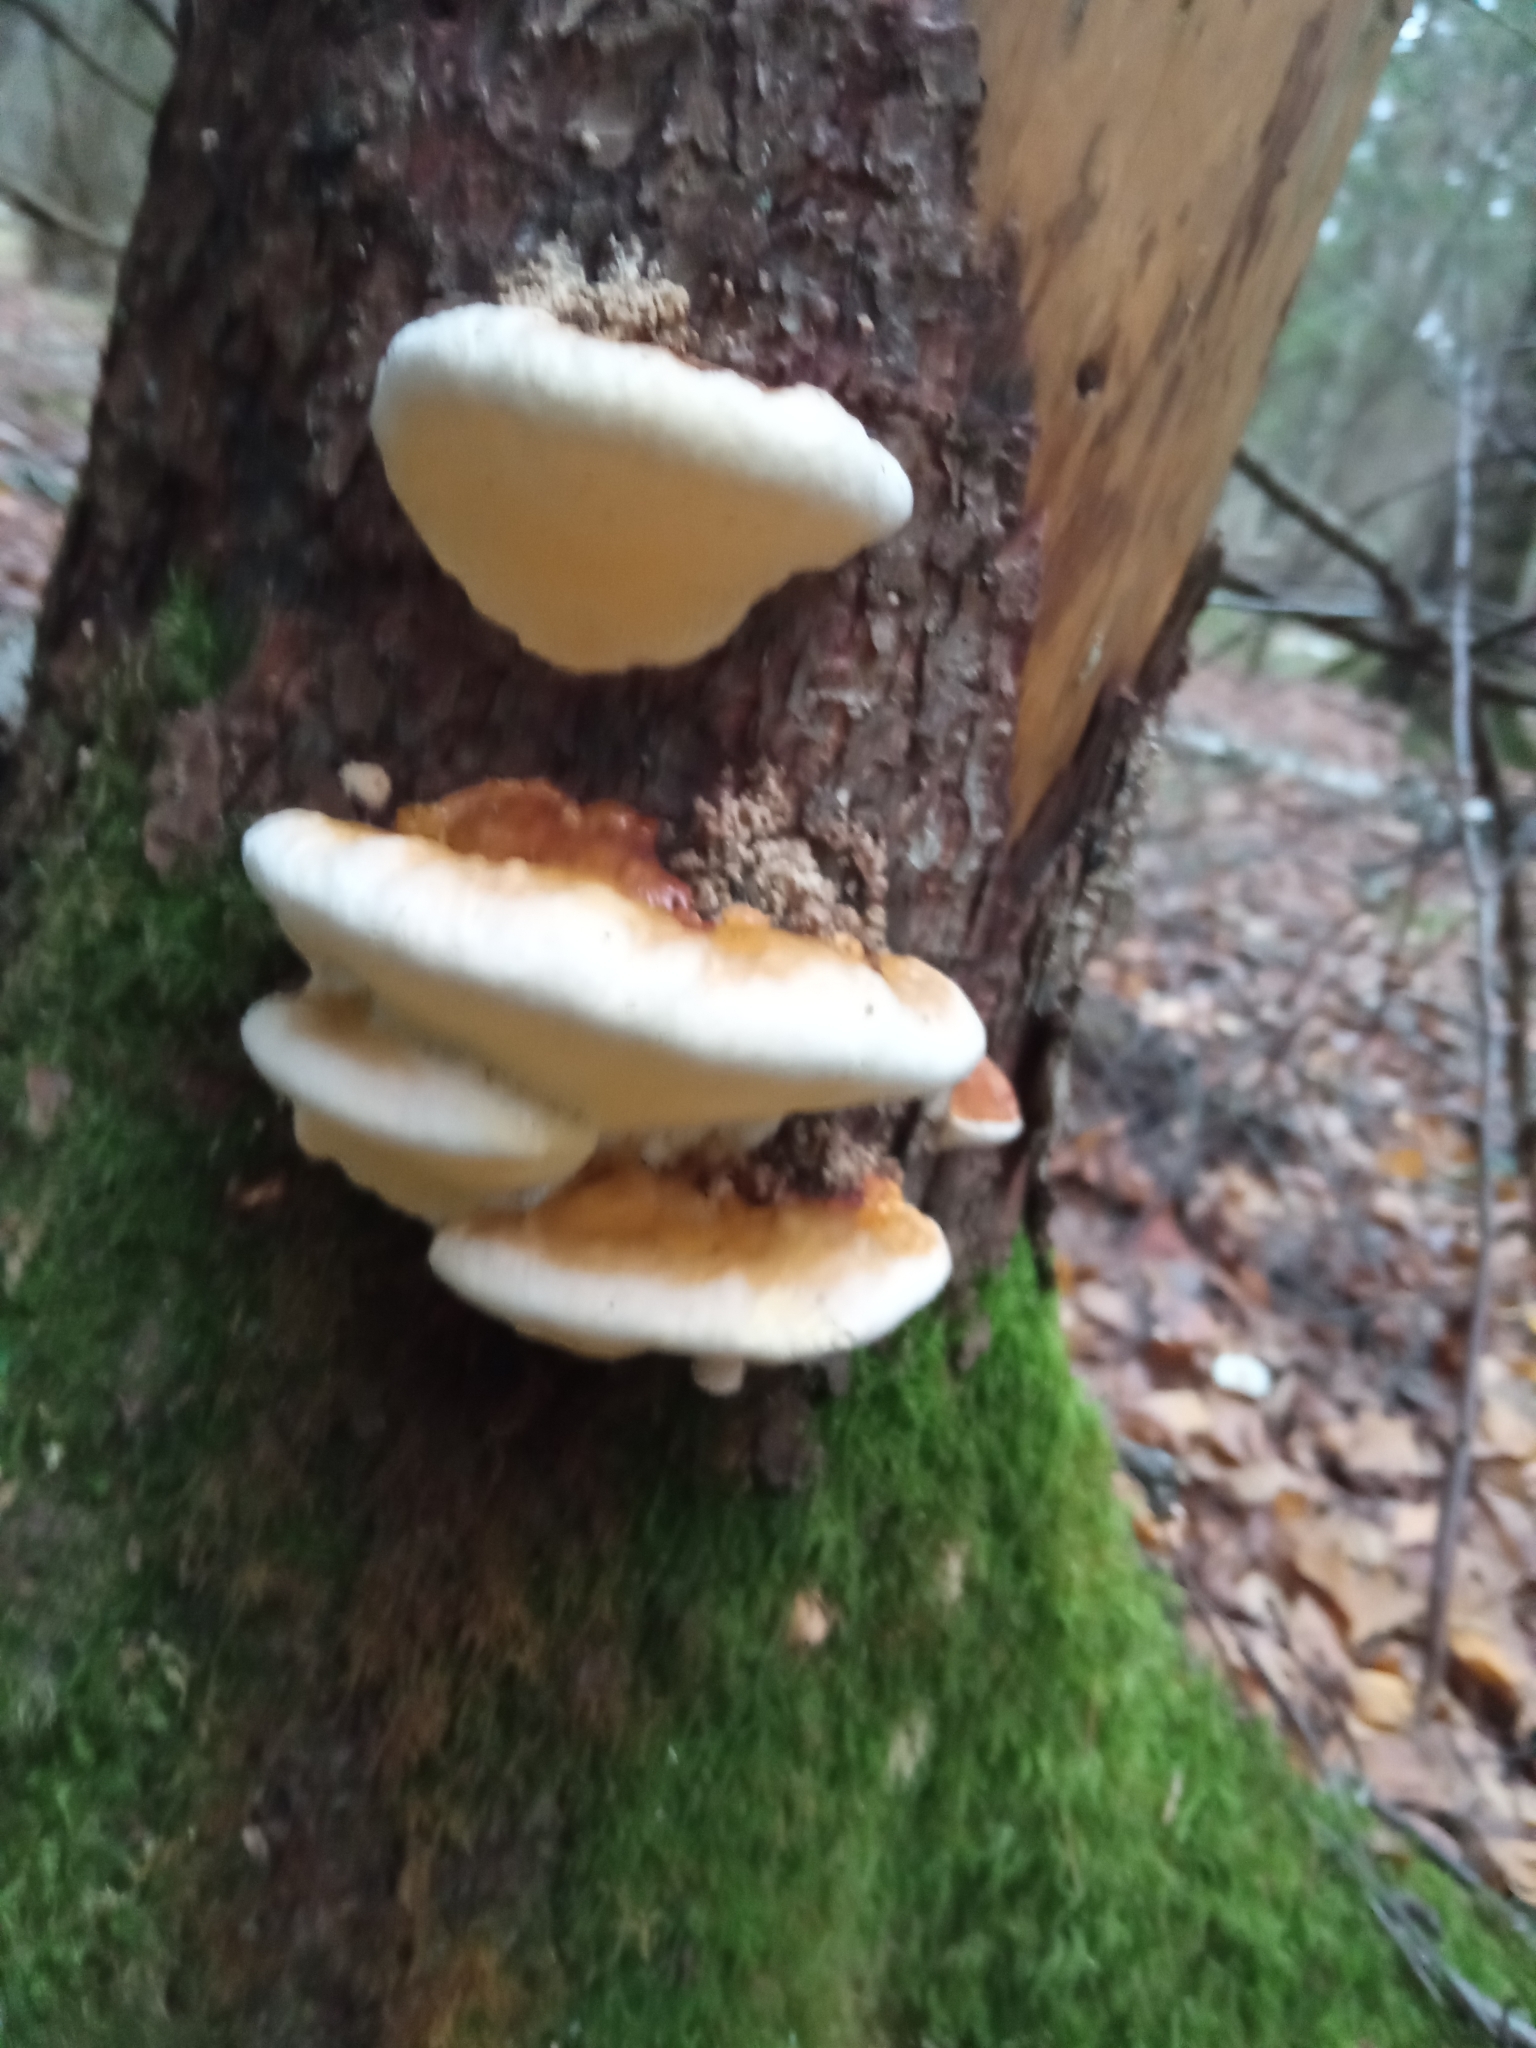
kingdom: Fungi
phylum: Basidiomycota
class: Agaricomycetes
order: Polyporales
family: Fomitopsidaceae
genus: Fomitopsis
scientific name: Fomitopsis pinicola
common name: Red-belted bracket
